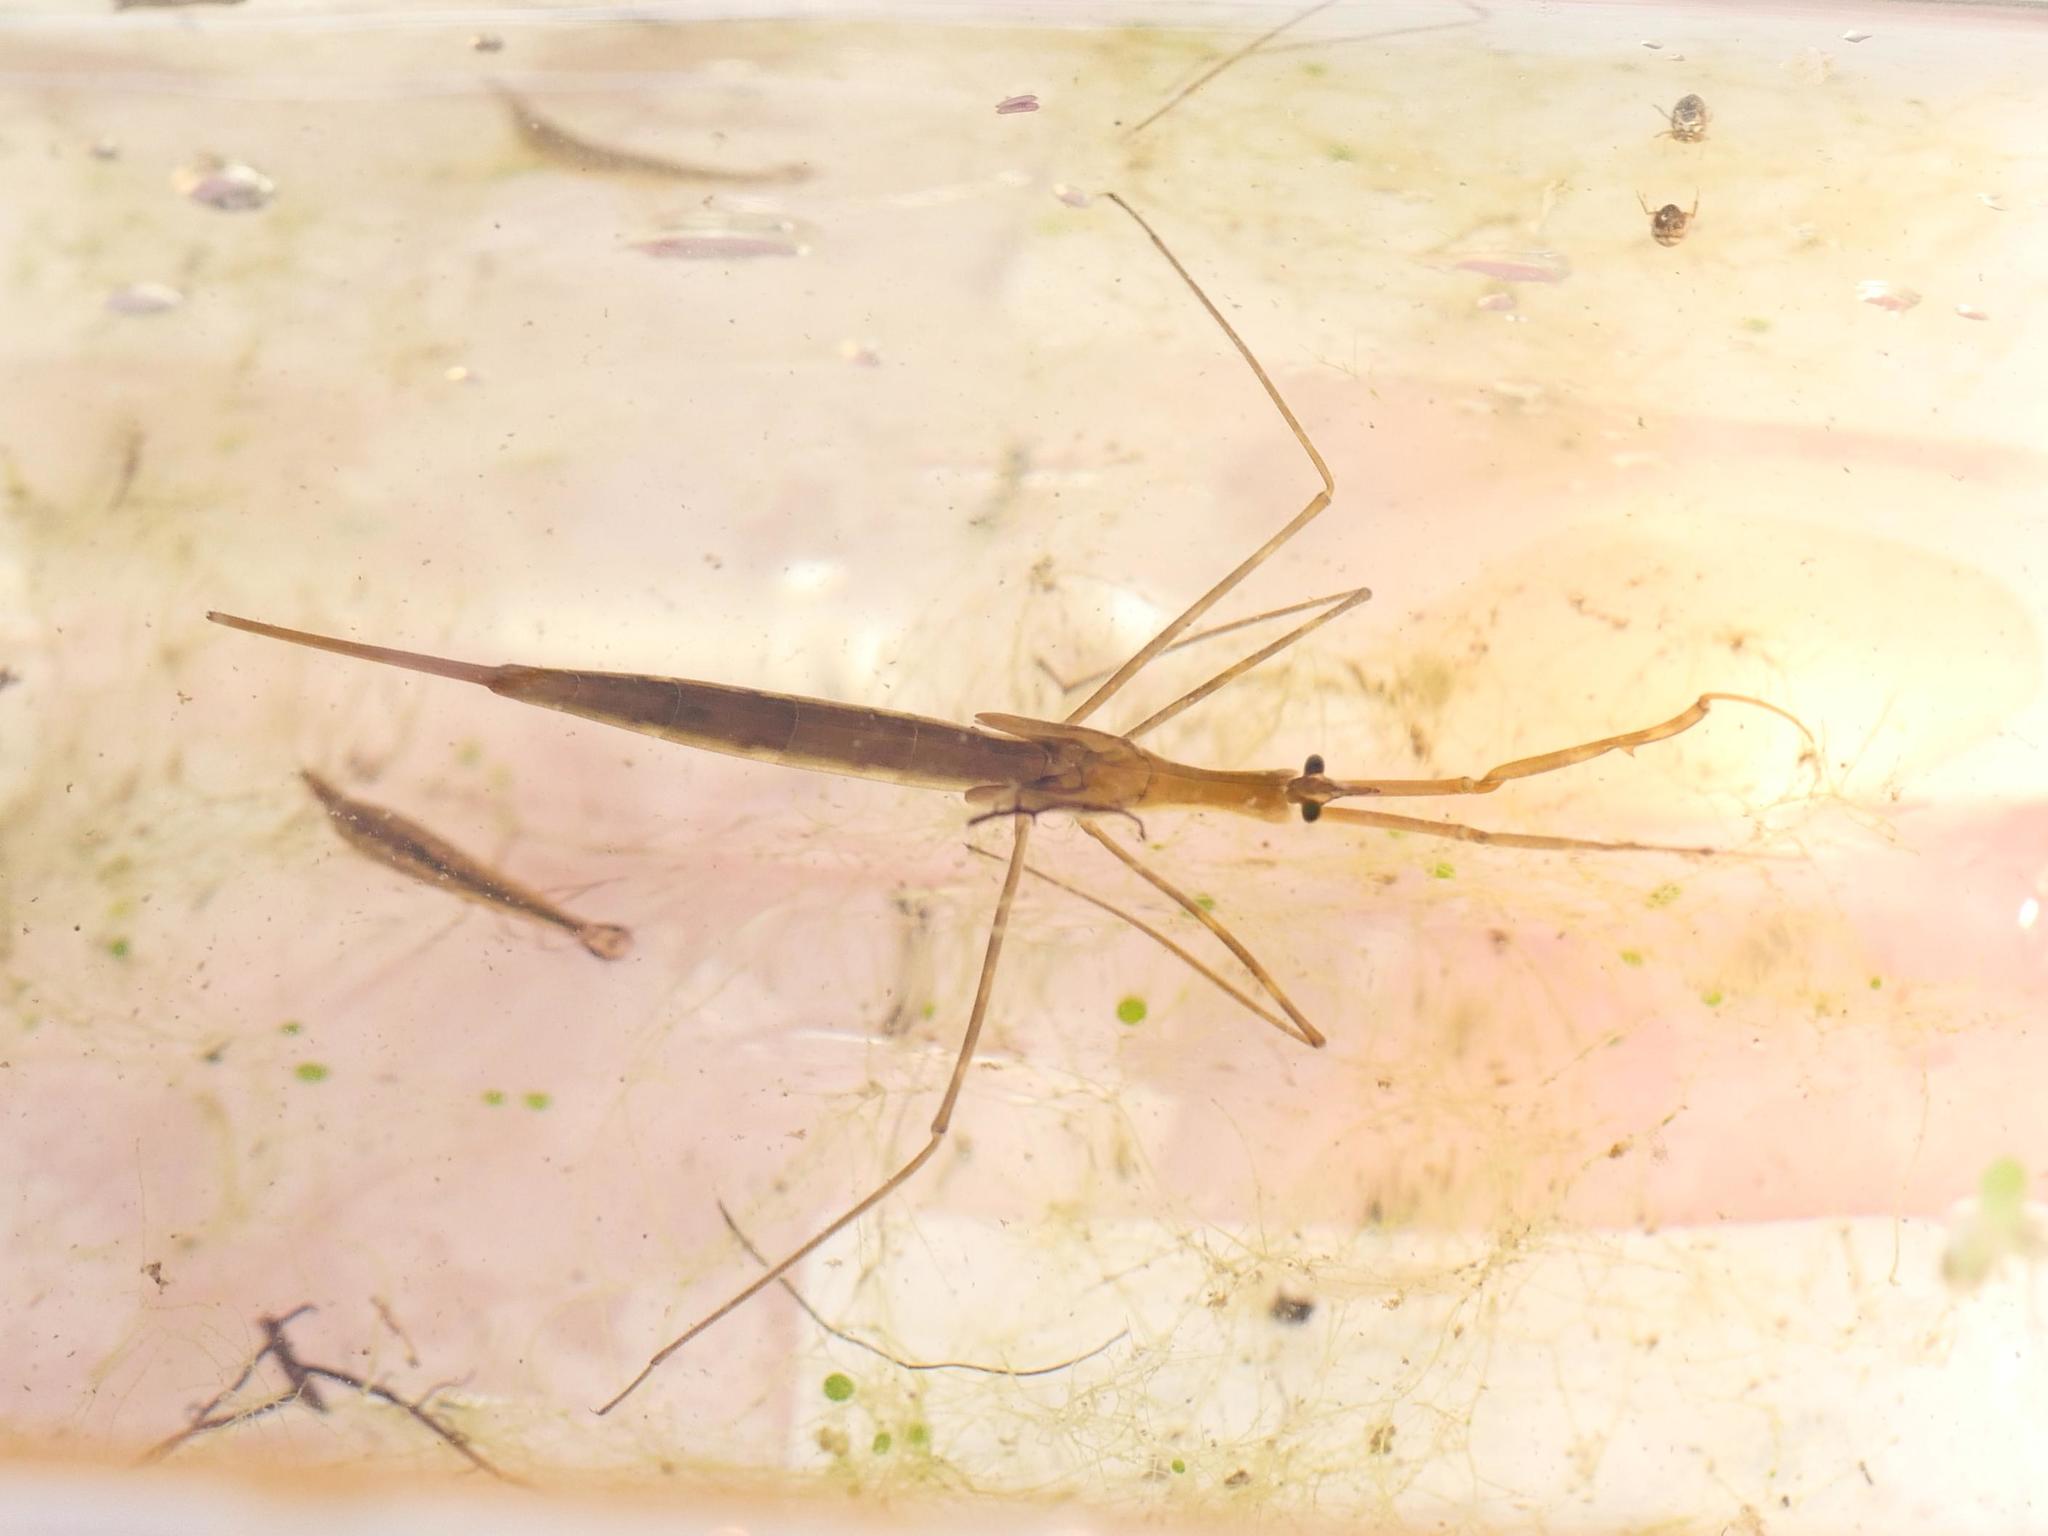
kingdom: Animalia
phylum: Arthropoda
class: Insecta
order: Hemiptera
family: Nepidae
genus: Ranatra
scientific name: Ranatra linearis
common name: Water stick insect
